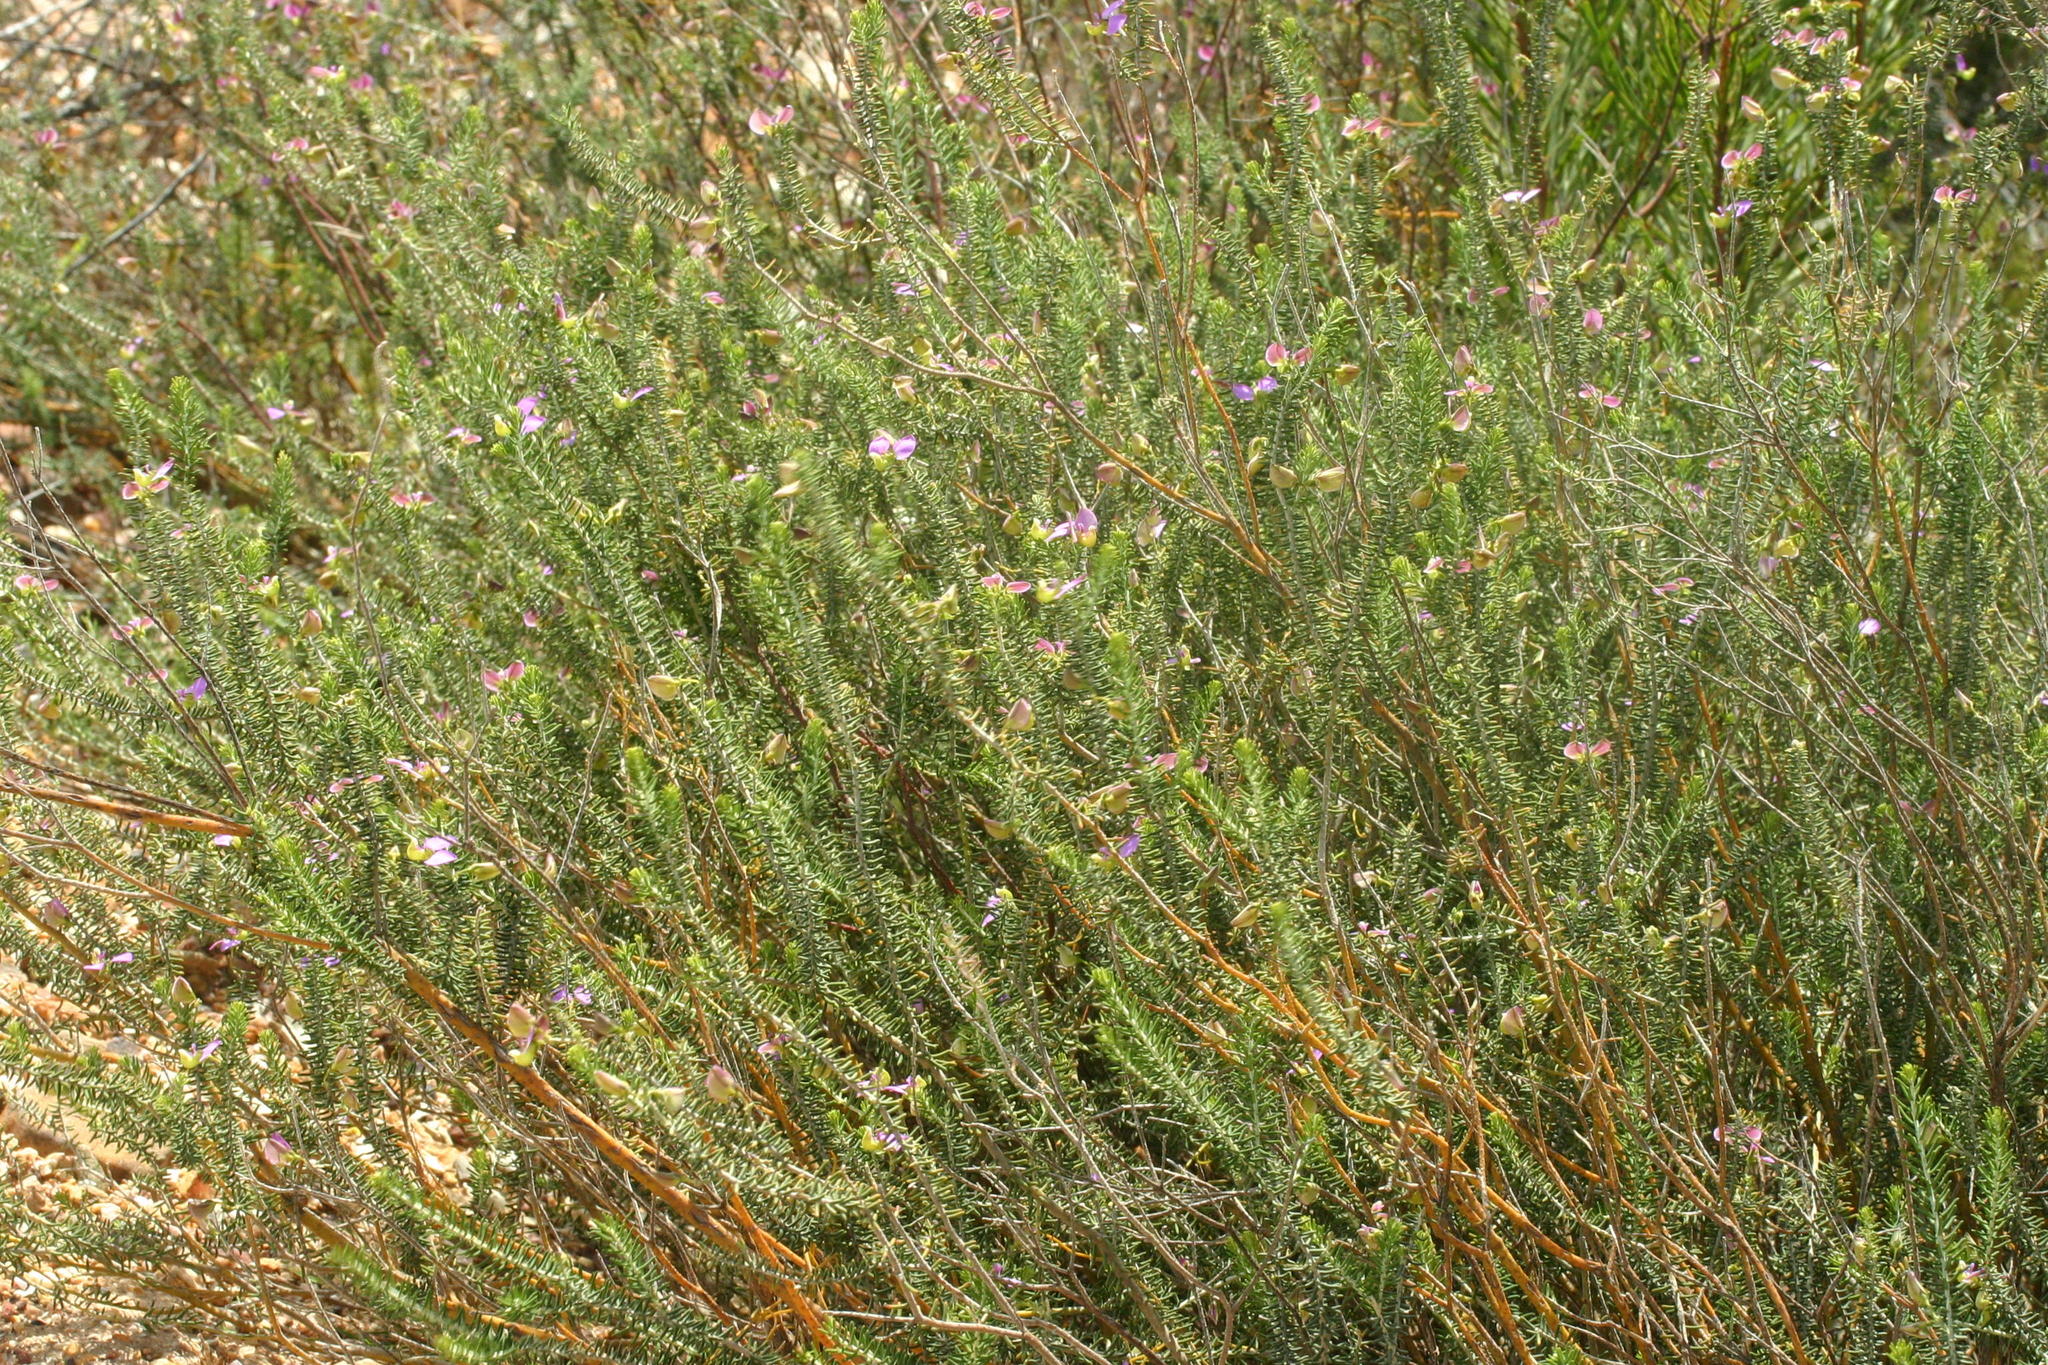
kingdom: Plantae
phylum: Tracheophyta
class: Magnoliopsida
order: Fabales
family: Polygalaceae
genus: Polygala
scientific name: Polygala teretifolia
